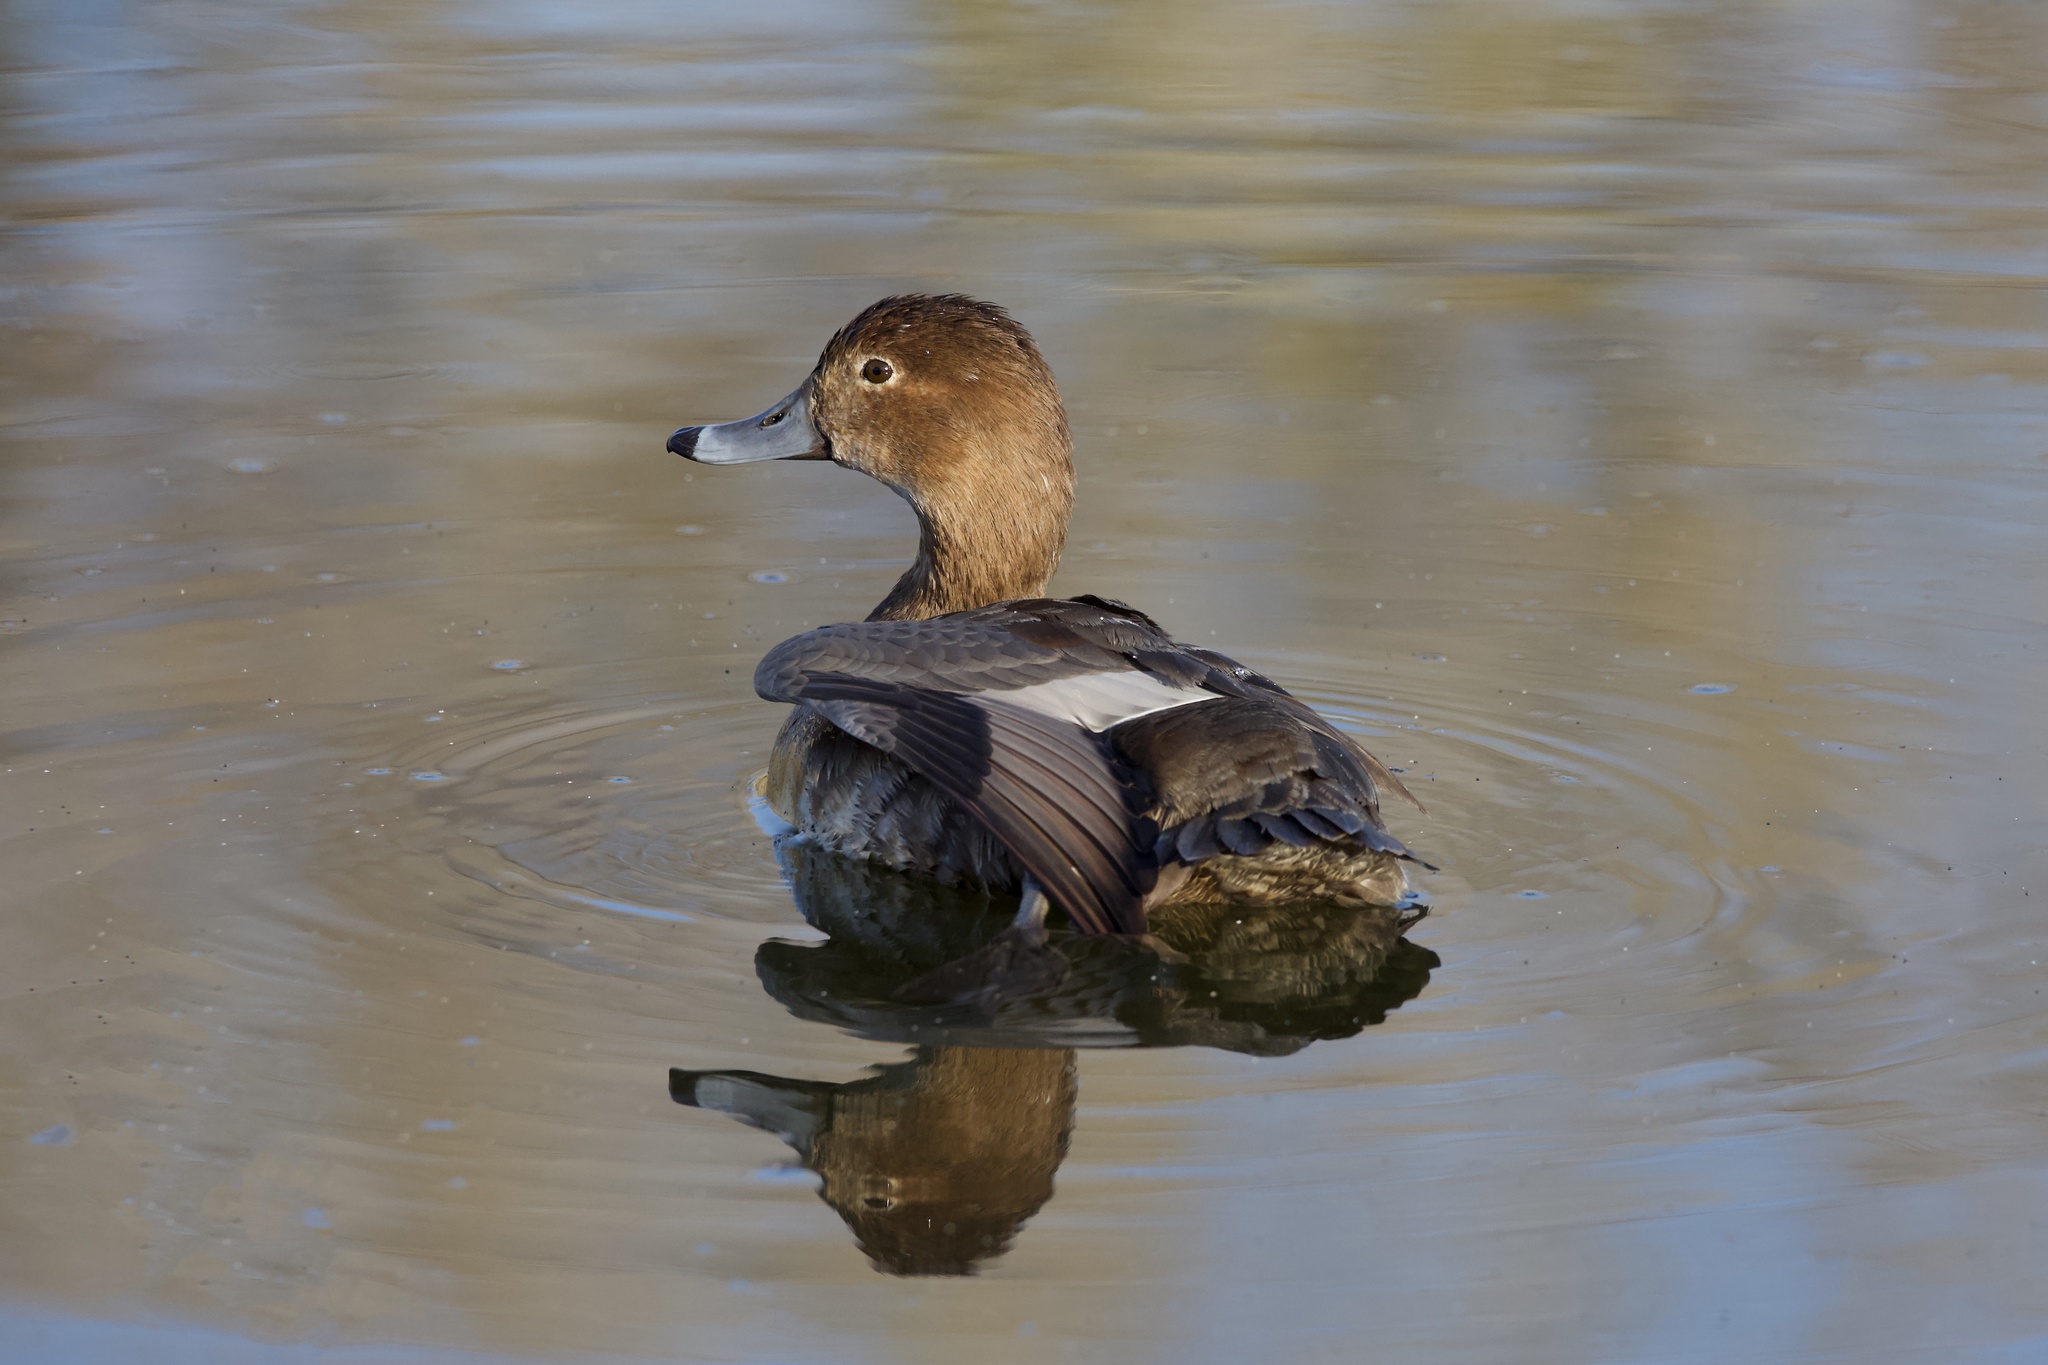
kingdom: Animalia
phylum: Chordata
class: Aves
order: Anseriformes
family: Anatidae
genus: Aythya
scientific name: Aythya americana
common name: Redhead
